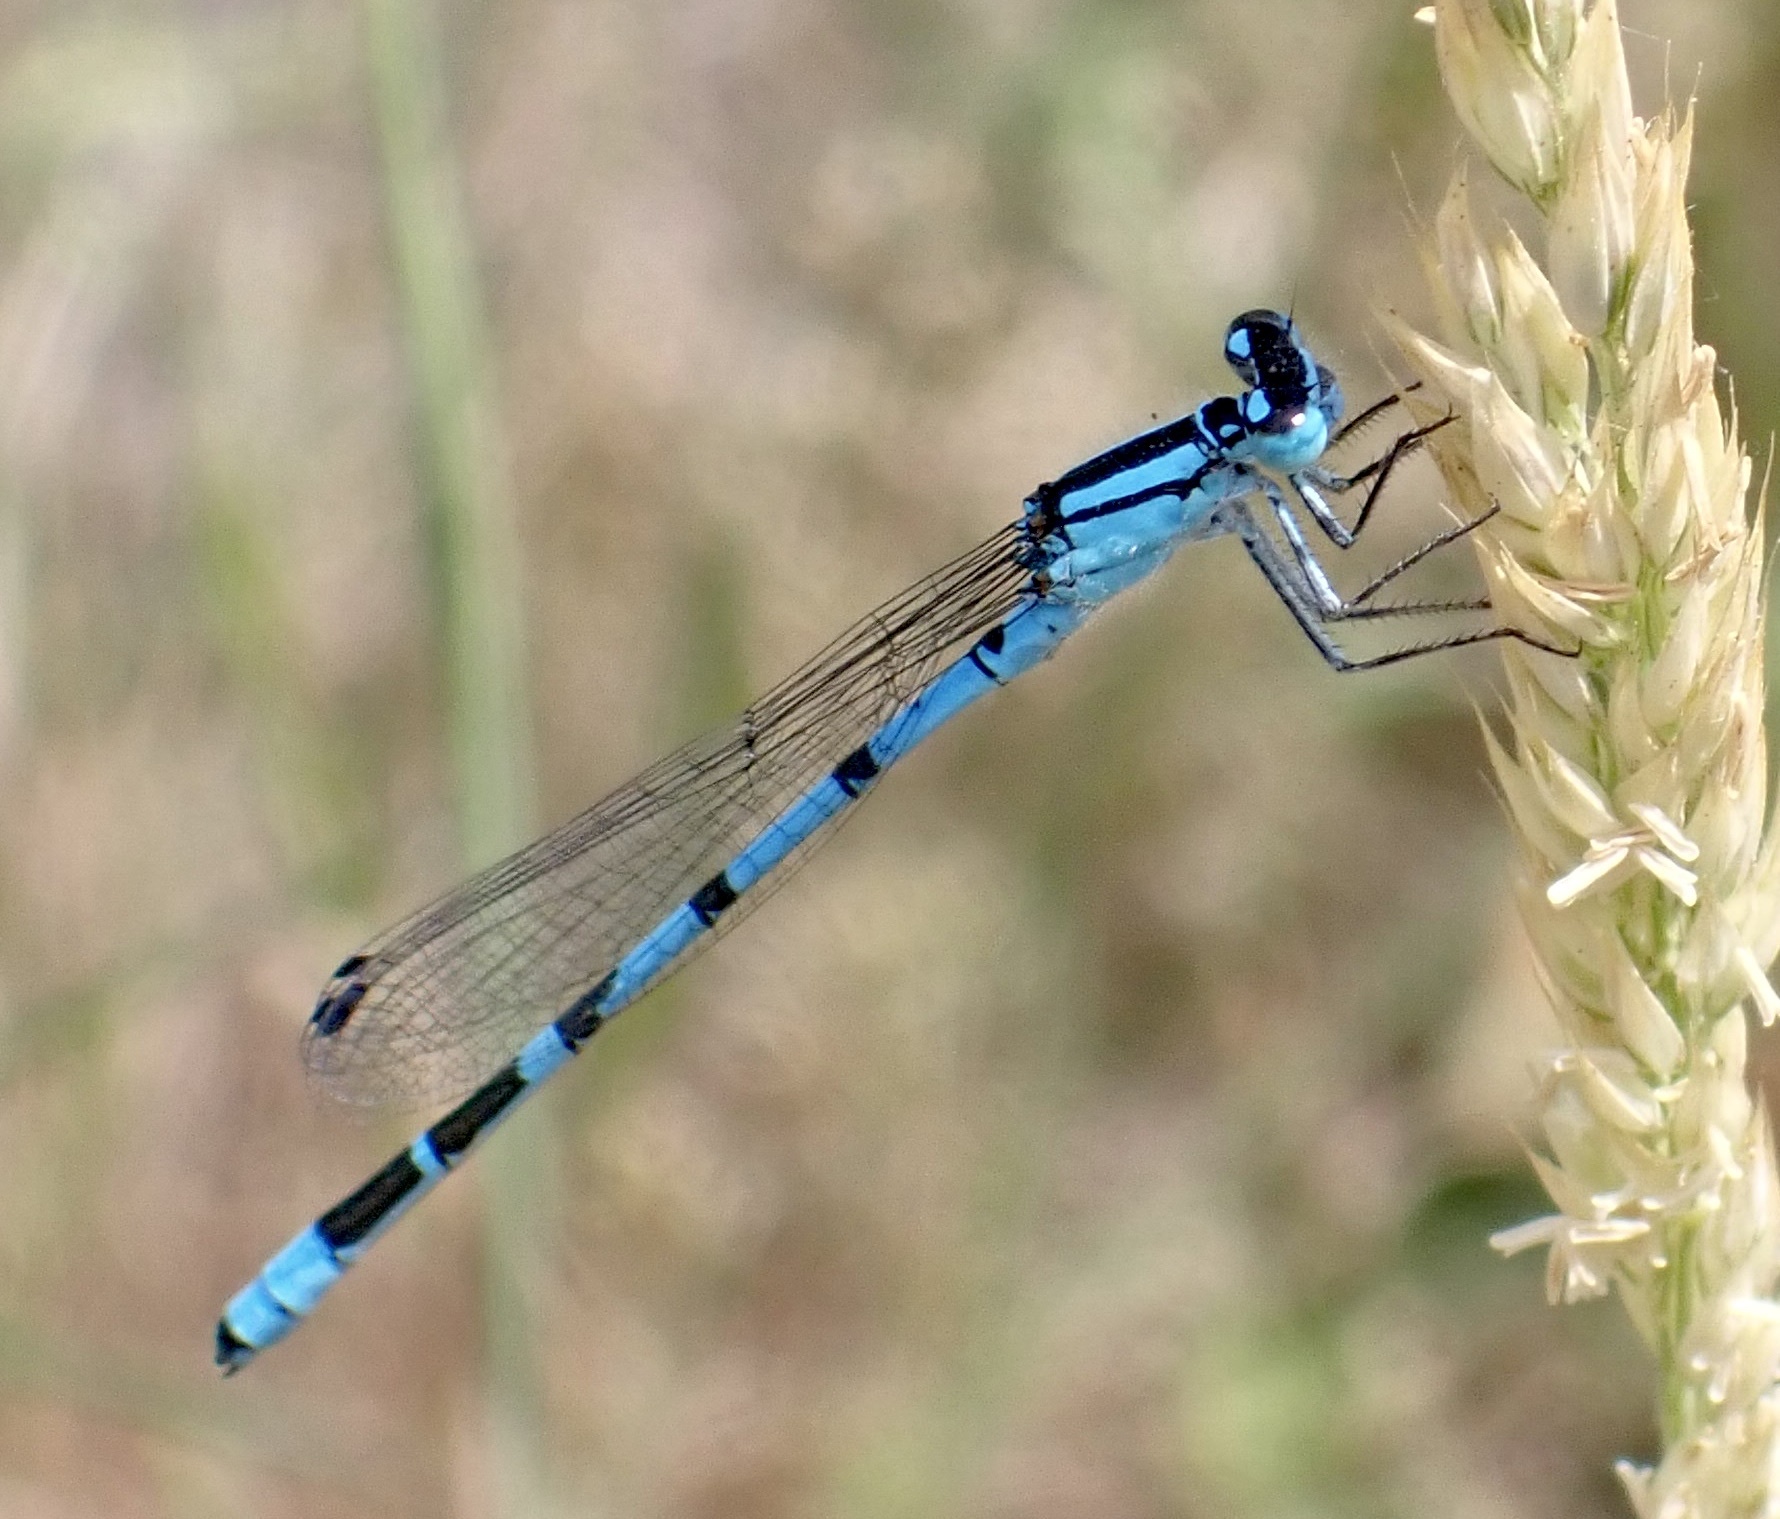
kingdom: Animalia
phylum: Arthropoda
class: Insecta
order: Odonata
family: Coenagrionidae
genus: Enallagma
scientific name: Enallagma cyathigerum
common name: Common blue damselfly
